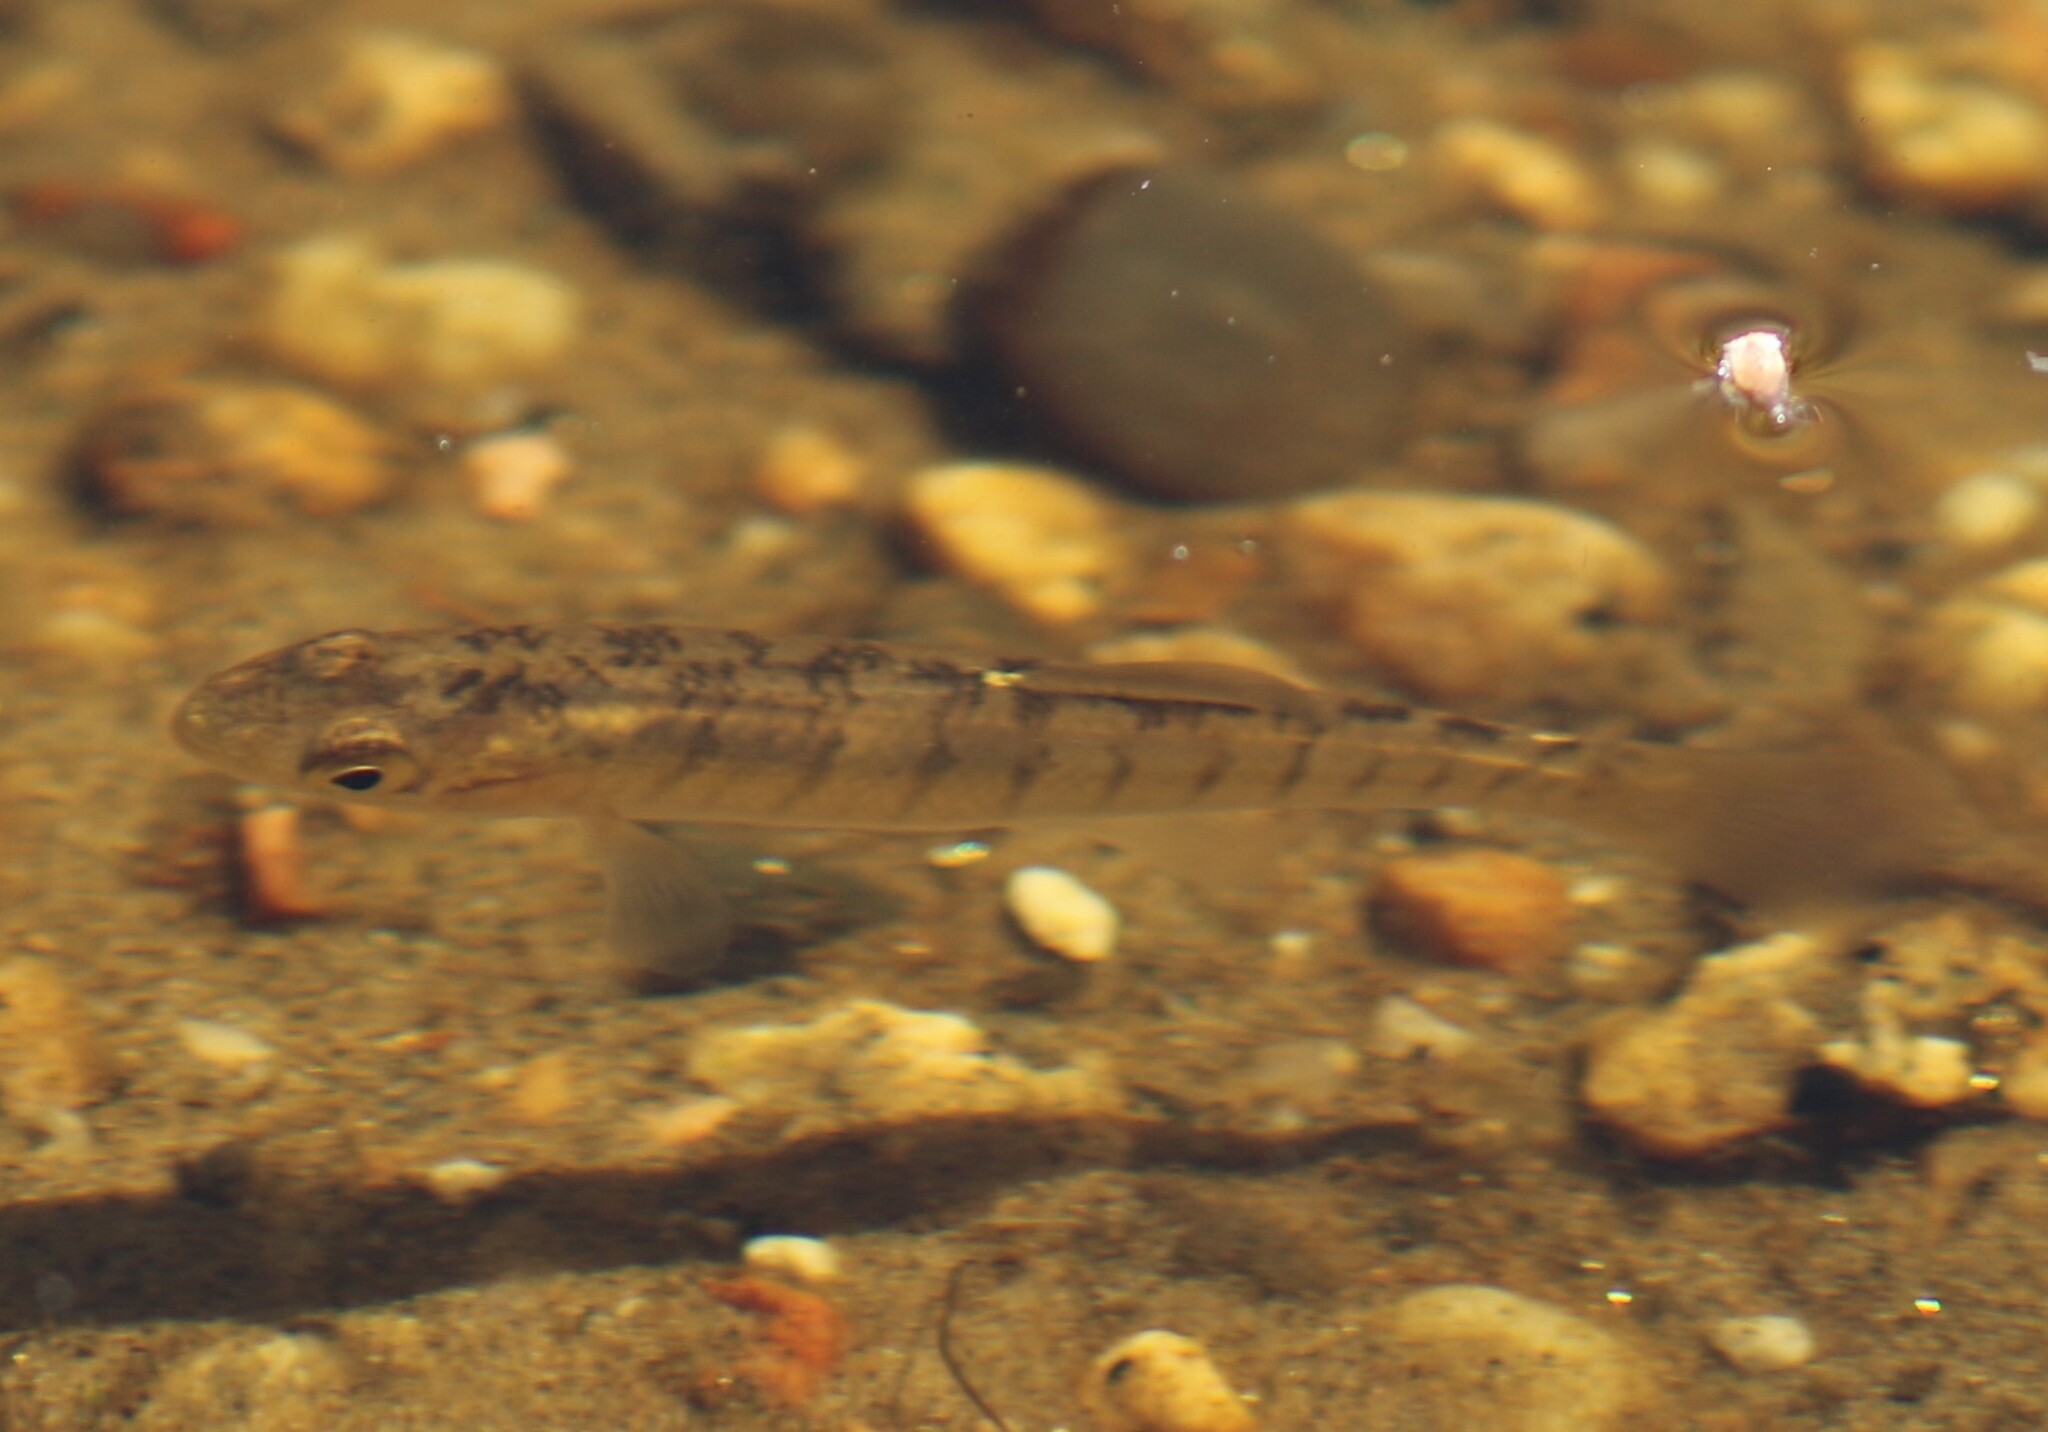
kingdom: Animalia
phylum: Chordata
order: Cyprinodontiformes
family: Fundulidae
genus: Fundulus
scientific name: Fundulus diaphanus
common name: Banded killifish
